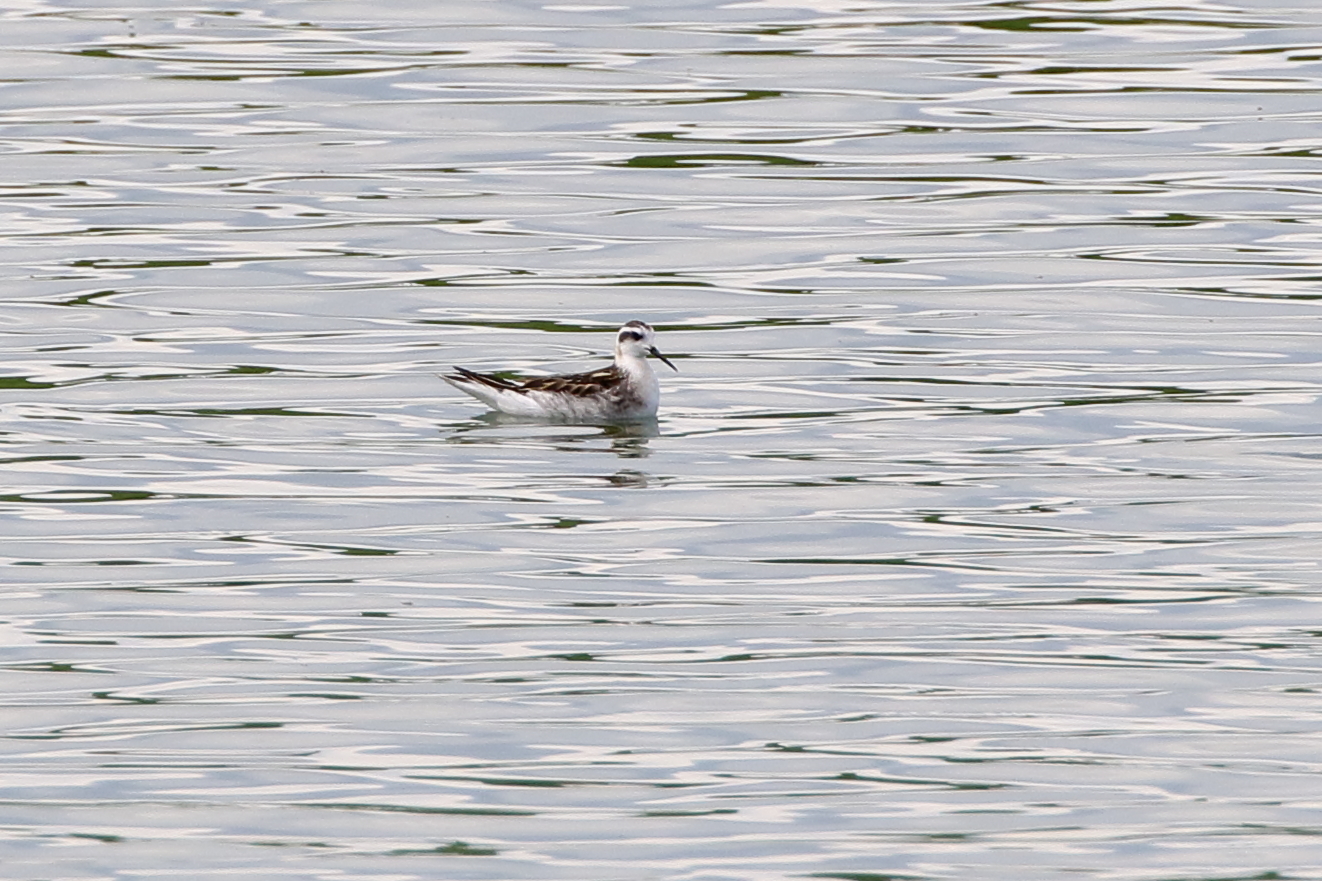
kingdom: Animalia
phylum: Chordata
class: Aves
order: Charadriiformes
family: Scolopacidae
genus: Phalaropus
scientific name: Phalaropus lobatus
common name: Red-necked phalarope
